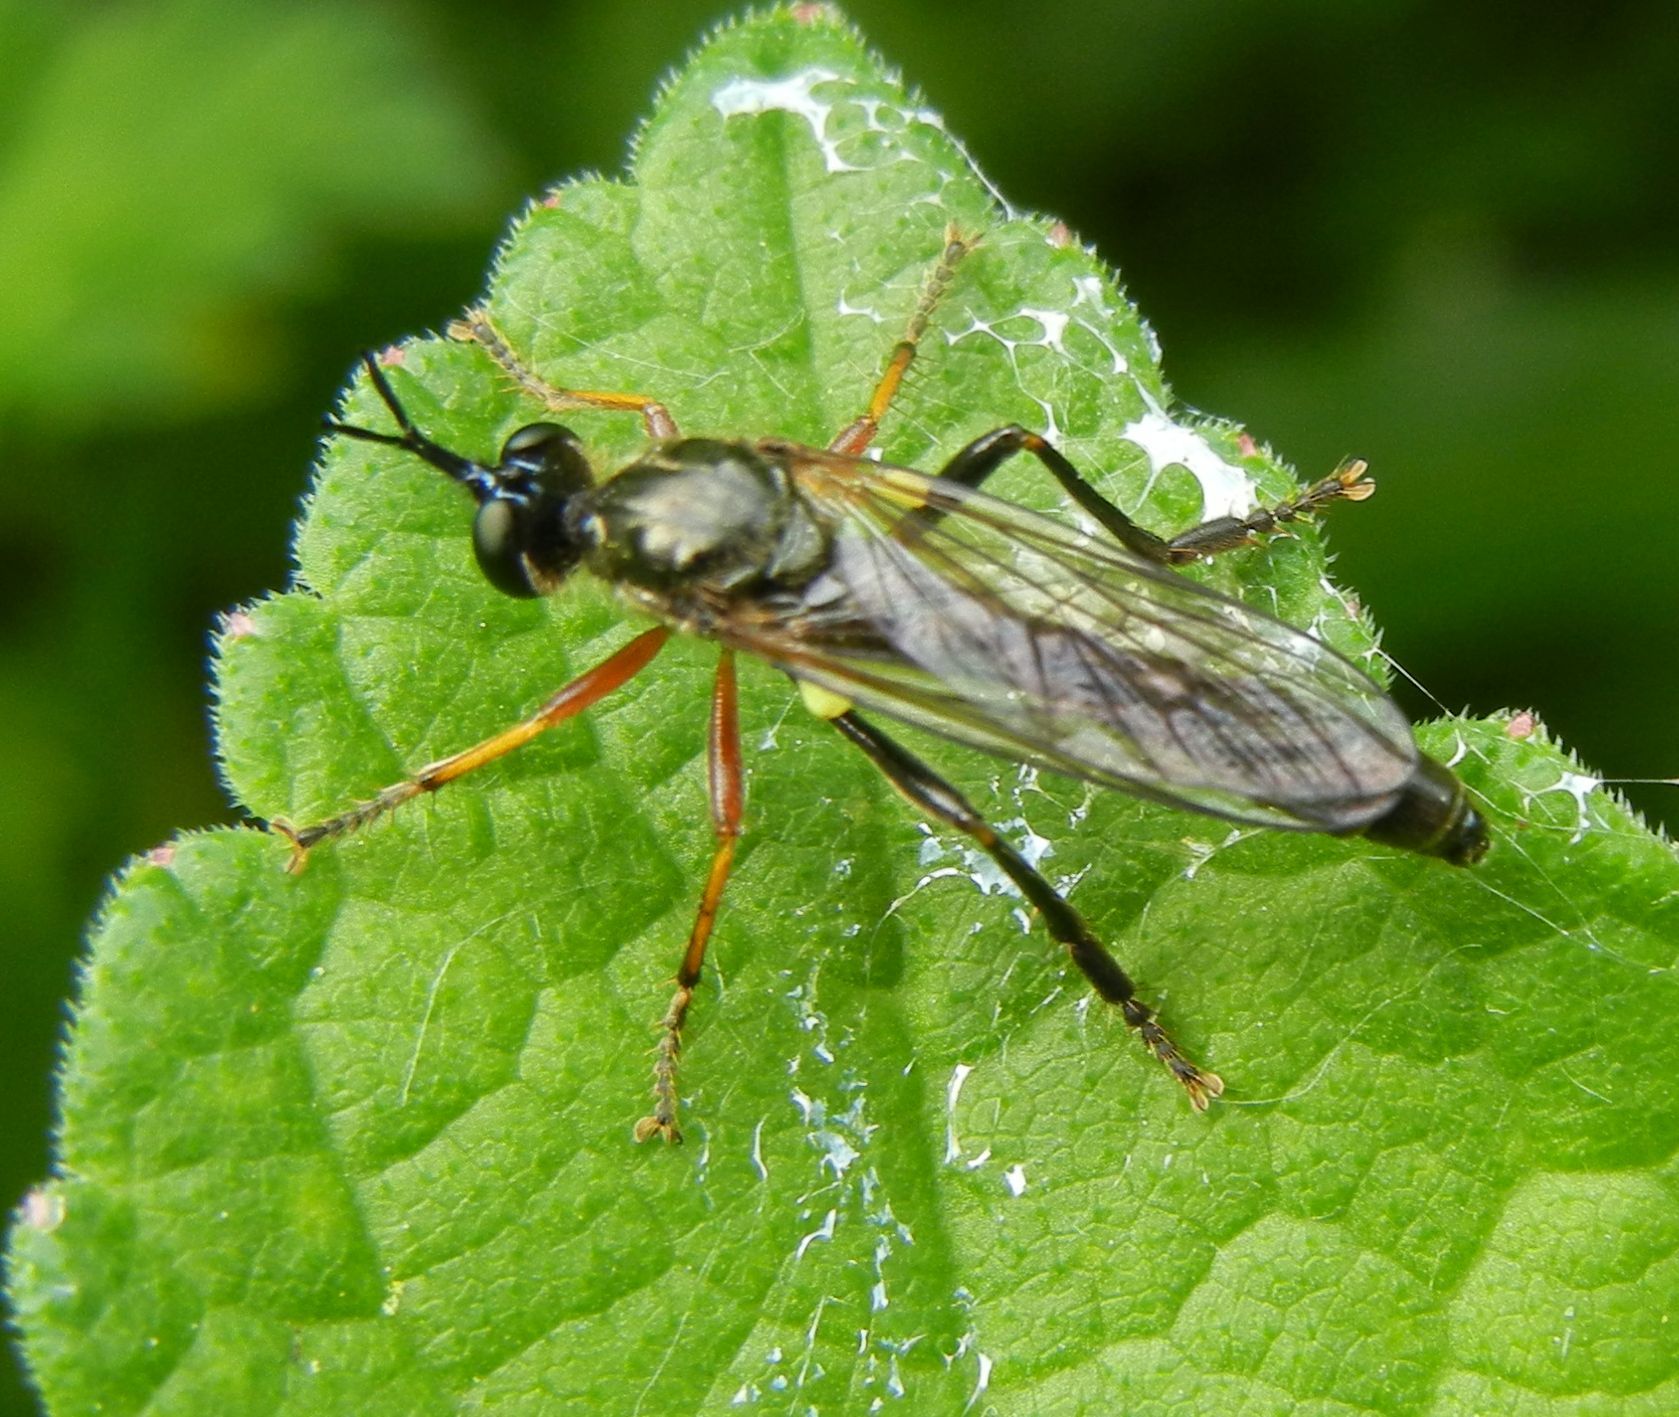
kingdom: Animalia
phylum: Arthropoda
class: Insecta
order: Diptera
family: Asilidae
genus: Dioctria
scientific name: Dioctria rufipes
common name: Common red-legged robberfly
